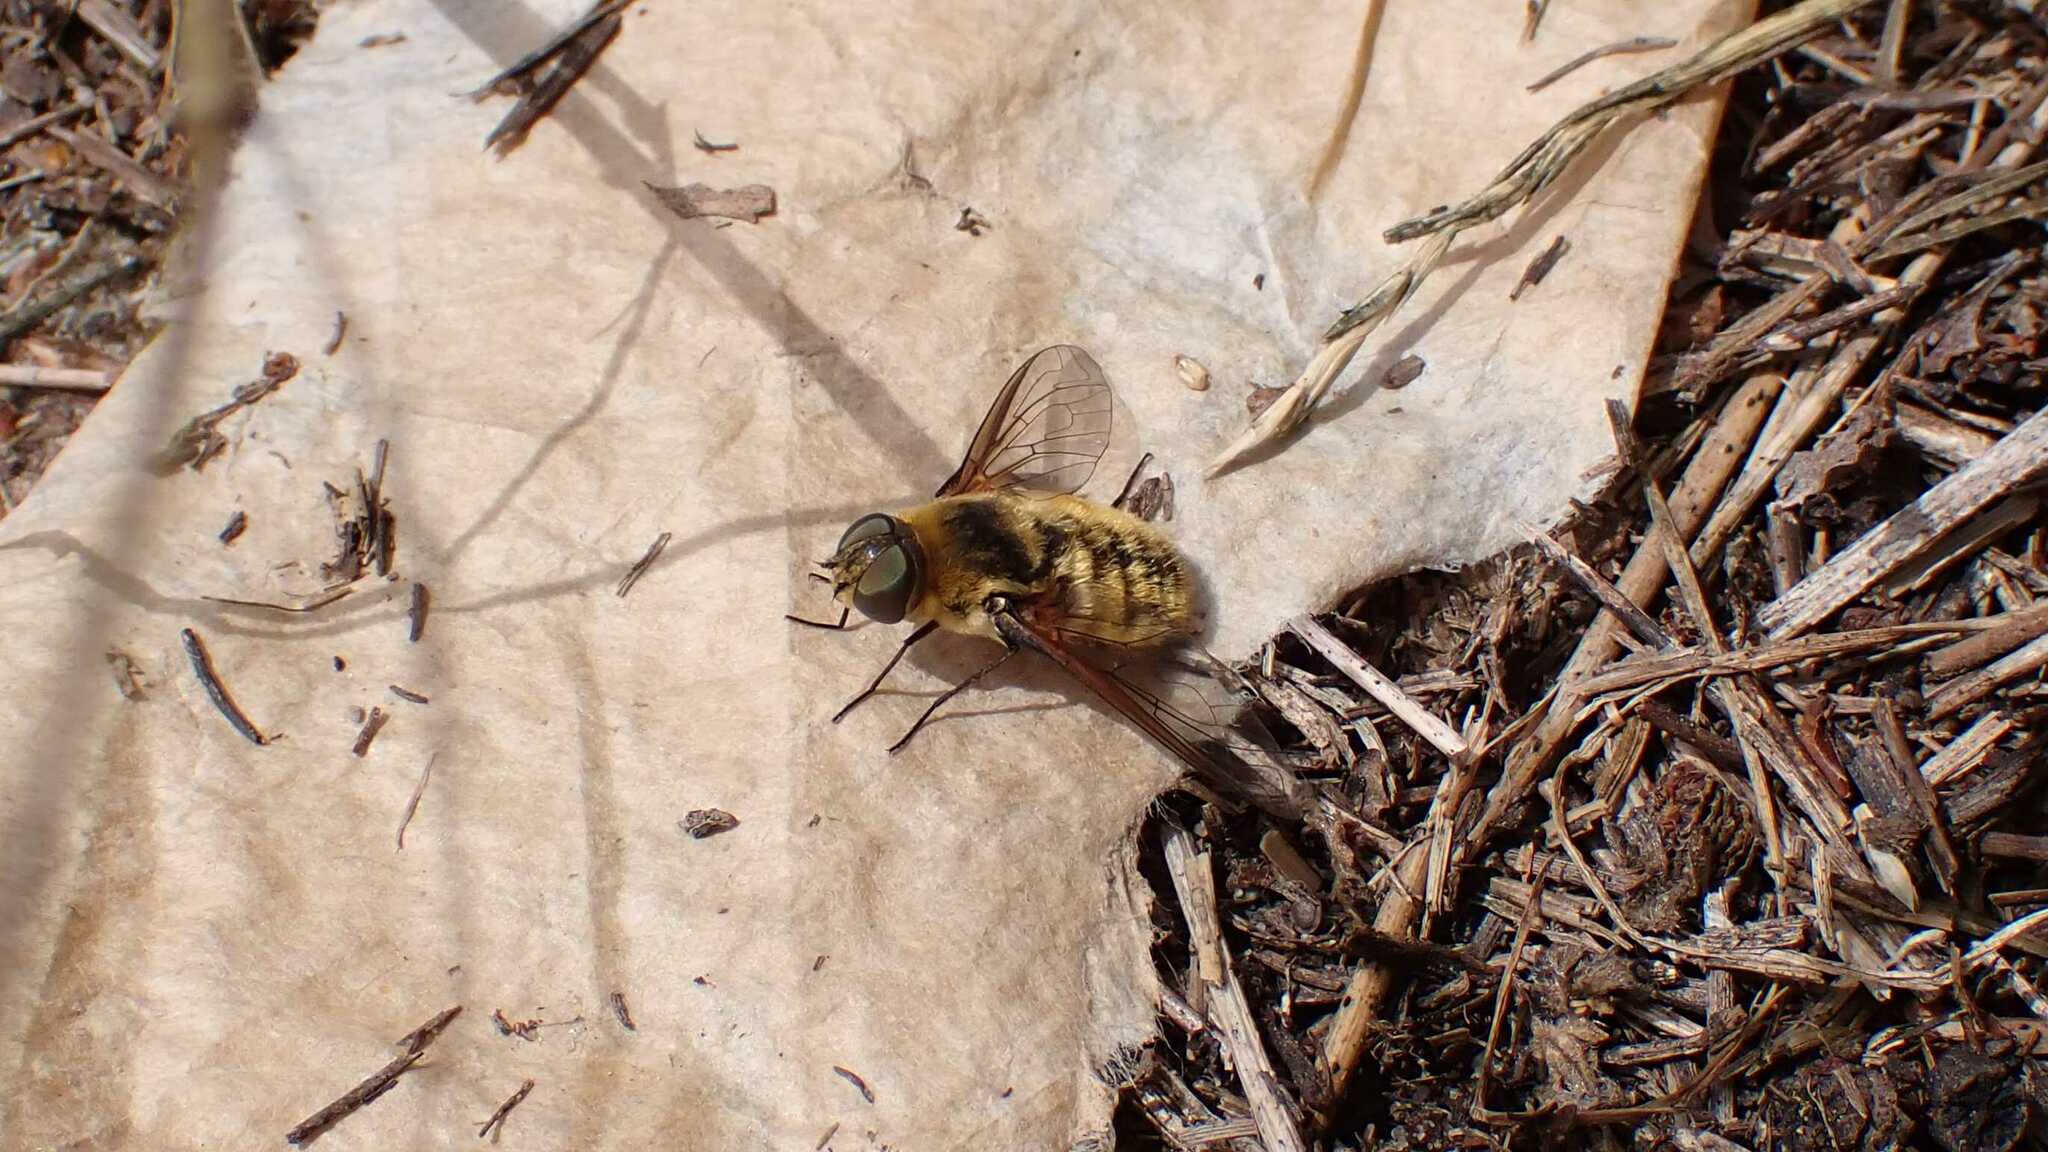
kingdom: Animalia
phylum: Arthropoda
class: Insecta
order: Diptera
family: Bombyliidae
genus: Villa
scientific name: Villa
